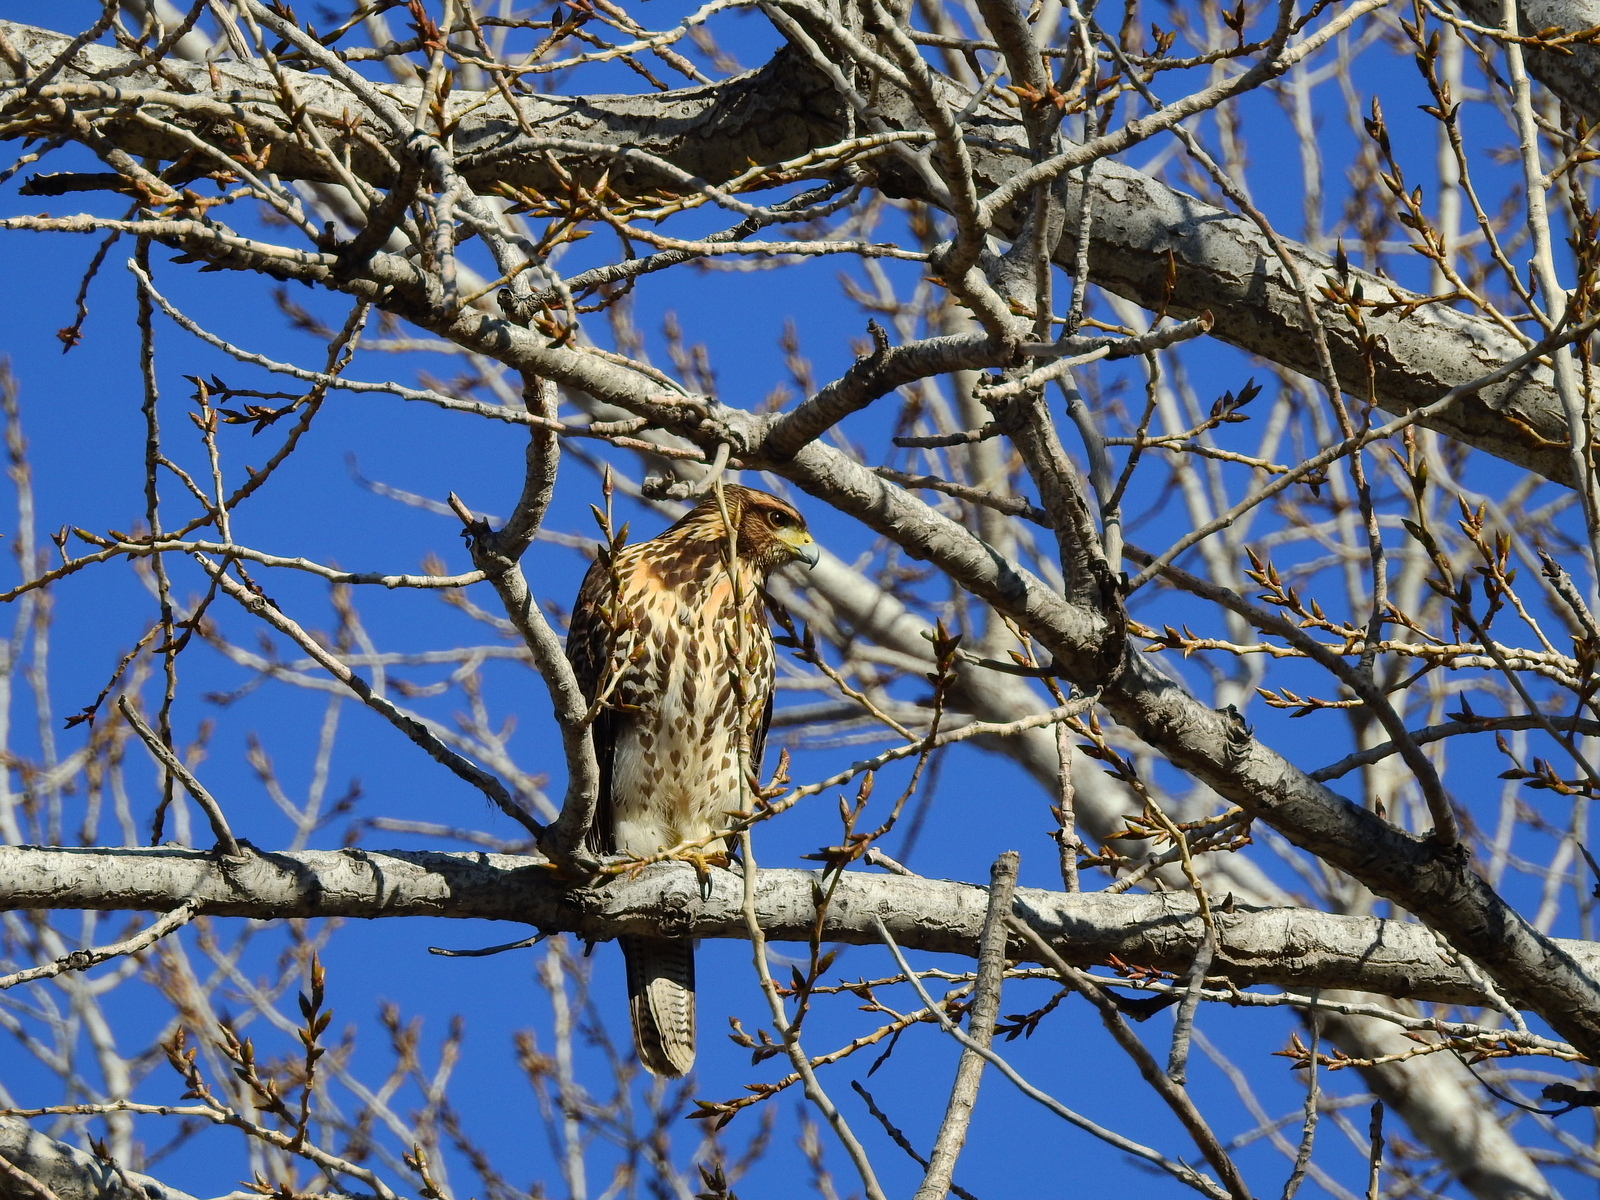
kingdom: Animalia
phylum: Chordata
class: Aves
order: Accipitriformes
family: Accipitridae
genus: Parabuteo
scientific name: Parabuteo unicinctus
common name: Harris's hawk
